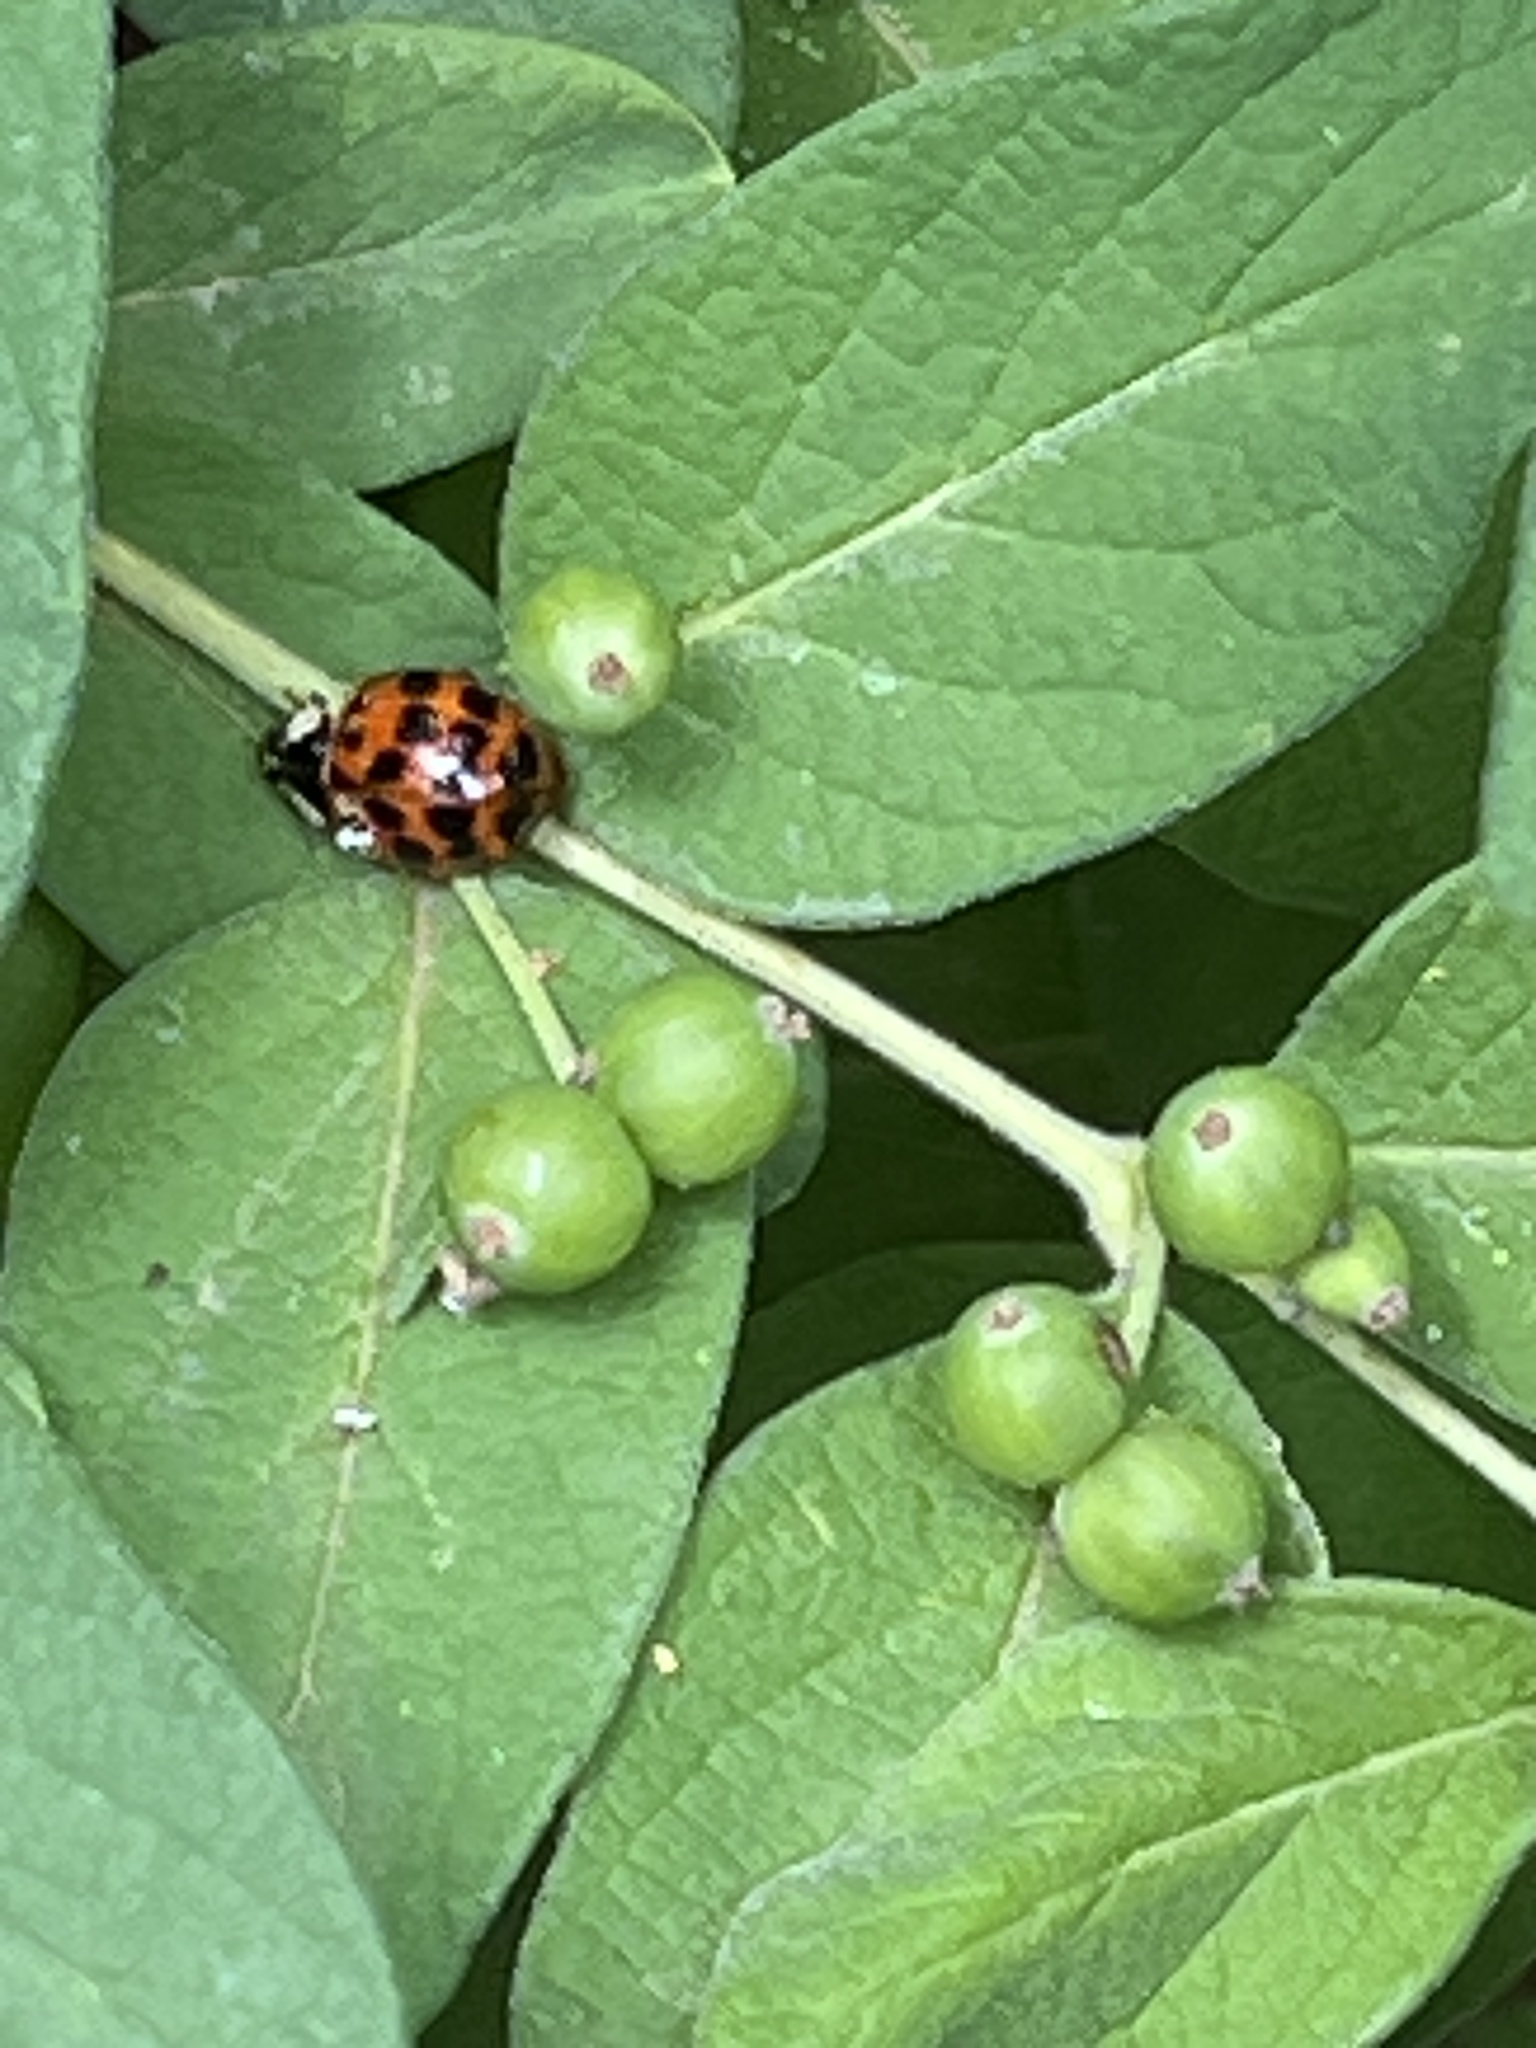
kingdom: Animalia
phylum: Arthropoda
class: Insecta
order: Coleoptera
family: Coccinellidae
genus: Harmonia
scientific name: Harmonia axyridis
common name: Harlequin ladybird
